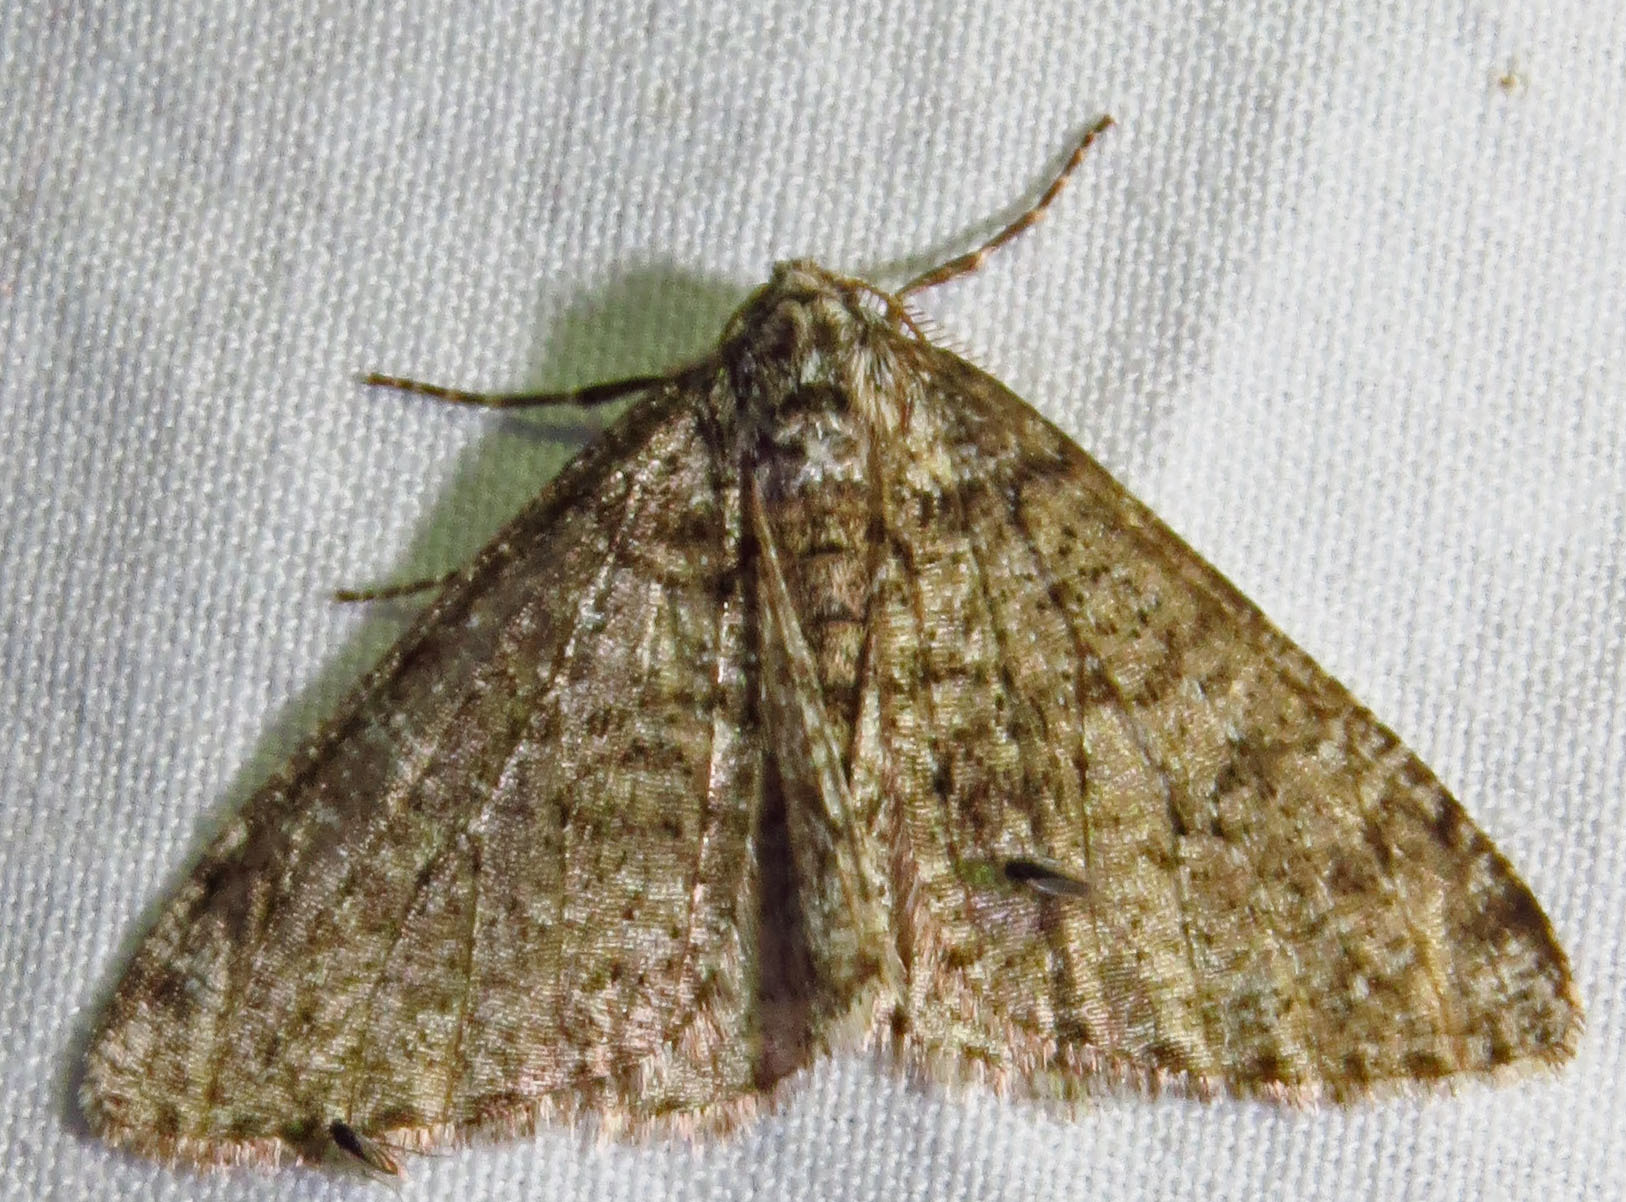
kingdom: Animalia
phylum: Arthropoda
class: Insecta
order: Lepidoptera
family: Geometridae
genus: Phigalia
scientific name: Phigalia strigataria
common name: Small phigalia
